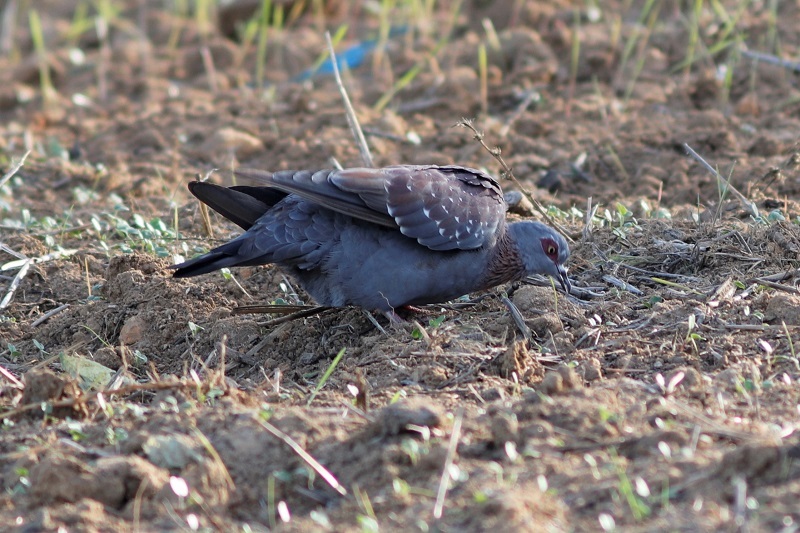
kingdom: Animalia
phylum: Chordata
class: Aves
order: Columbiformes
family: Columbidae
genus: Columba
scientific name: Columba guinea
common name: Speckled pigeon
